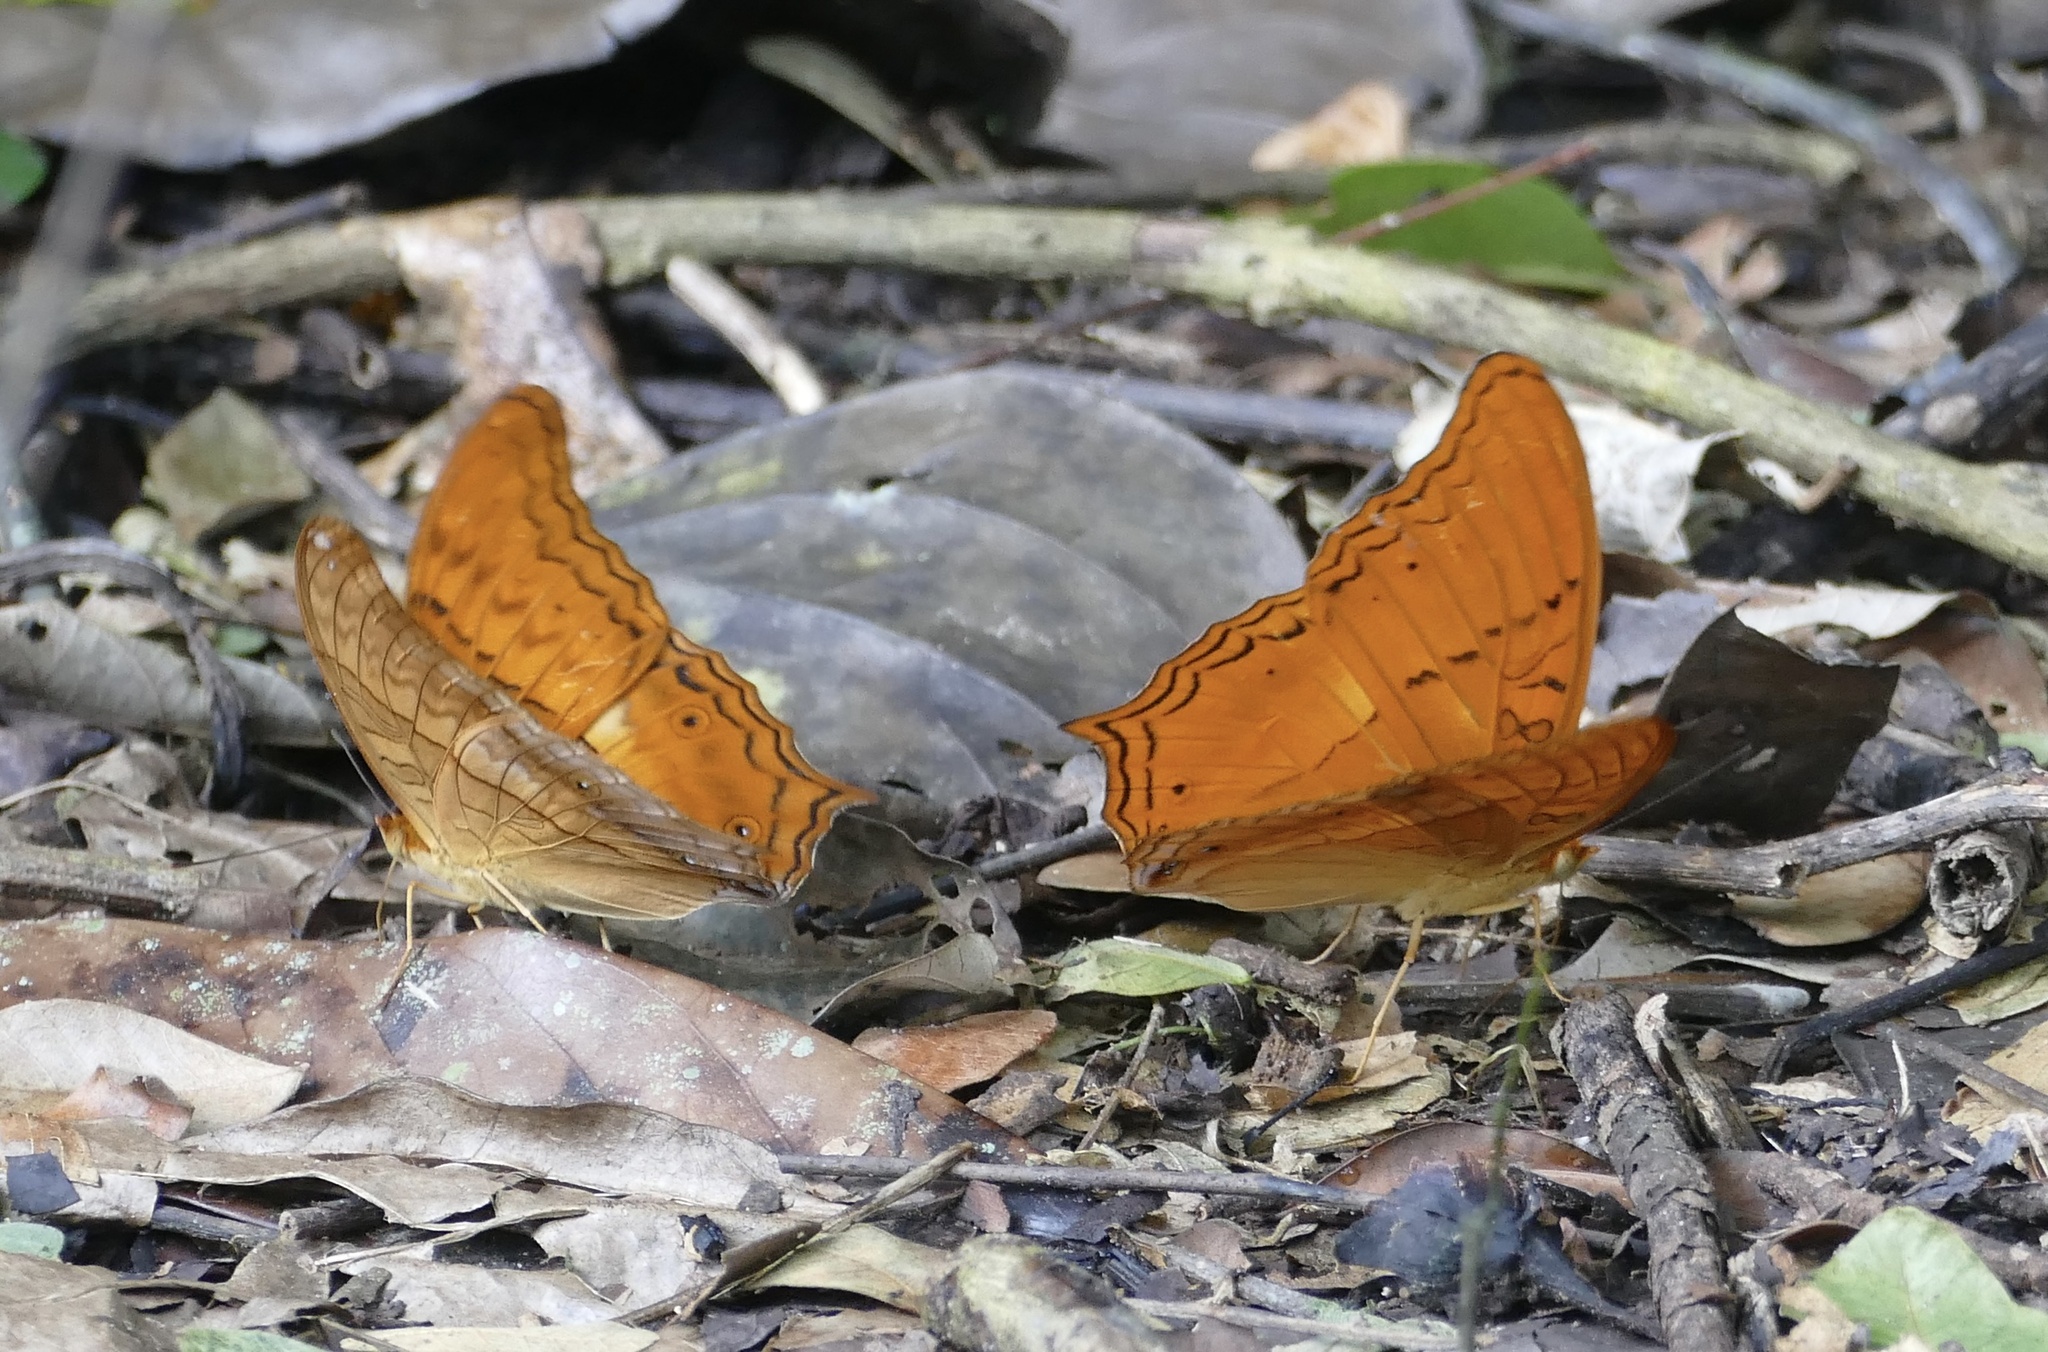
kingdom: Animalia
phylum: Arthropoda
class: Insecta
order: Lepidoptera
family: Nymphalidae
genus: Vindula
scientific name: Vindula deione
